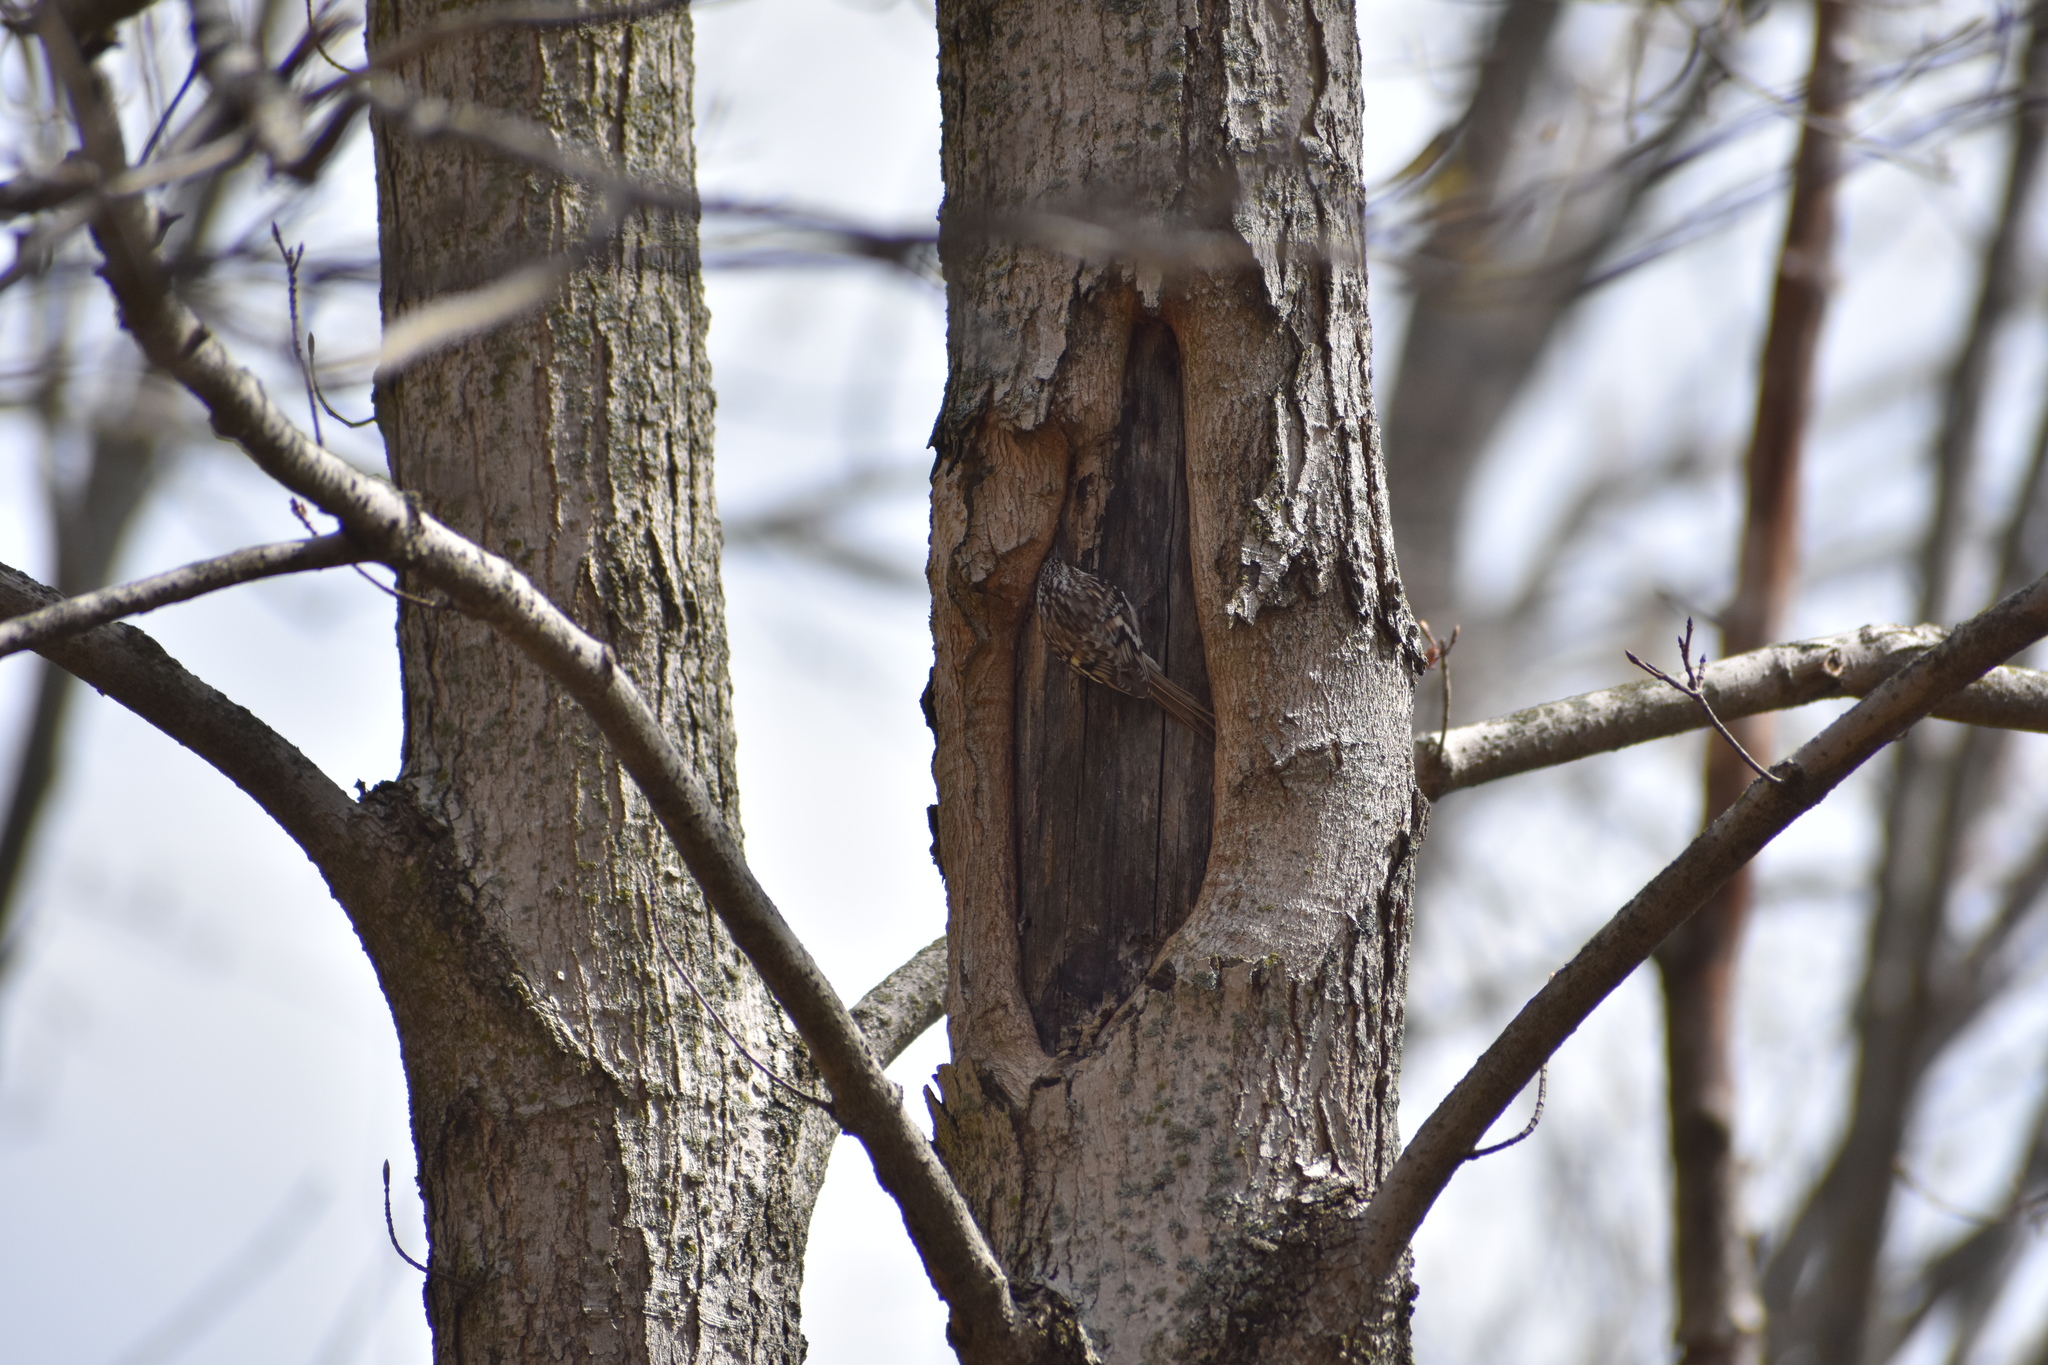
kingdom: Animalia
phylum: Chordata
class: Aves
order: Passeriformes
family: Certhiidae
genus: Certhia
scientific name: Certhia americana
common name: Brown creeper
